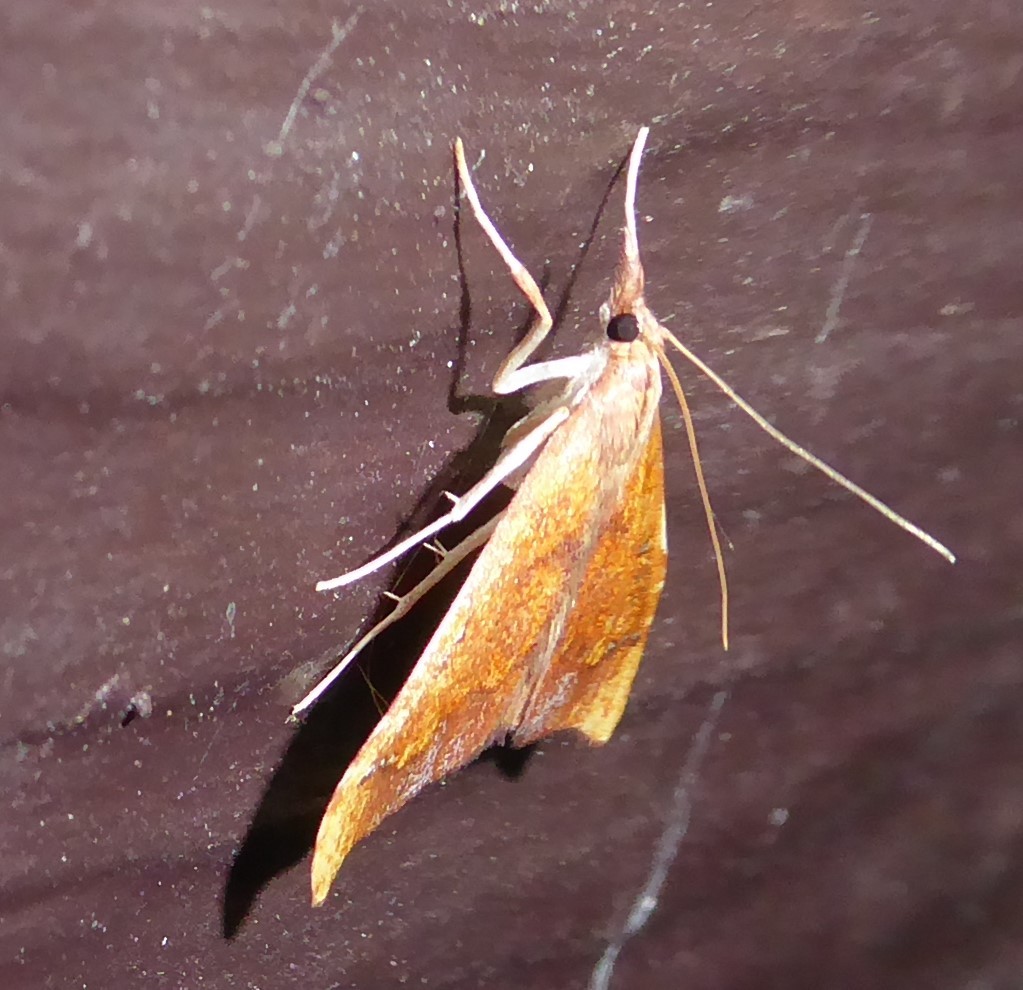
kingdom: Animalia
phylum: Arthropoda
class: Insecta
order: Lepidoptera
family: Crambidae
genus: Deana
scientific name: Deana hybreasalis
